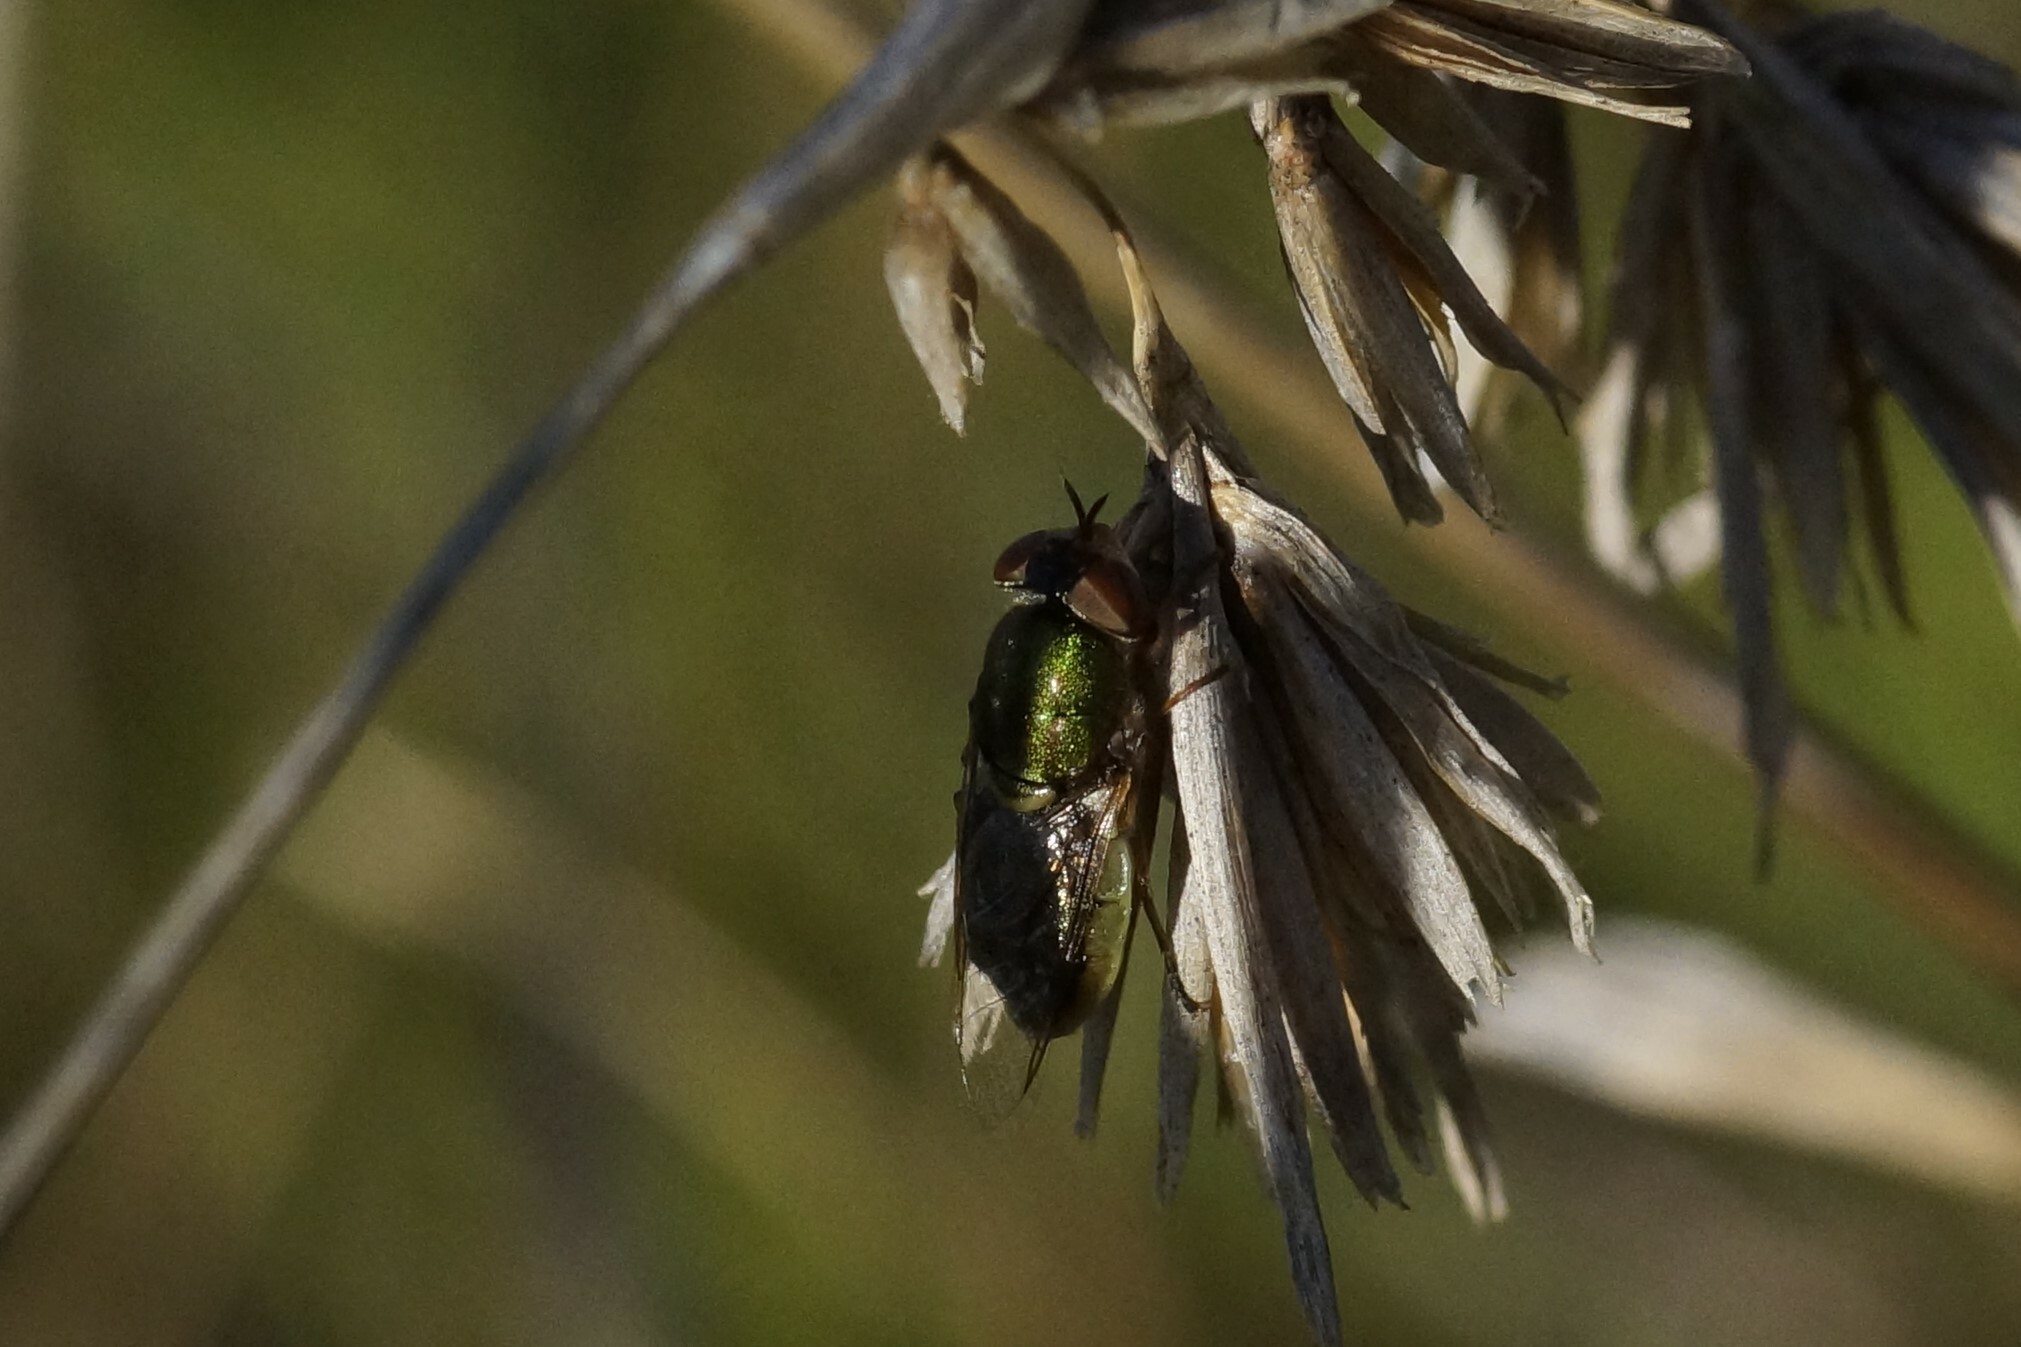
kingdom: Animalia
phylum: Arthropoda
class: Insecta
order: Diptera
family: Stratiomyidae
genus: Odontomyia
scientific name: Odontomyia decipiens
